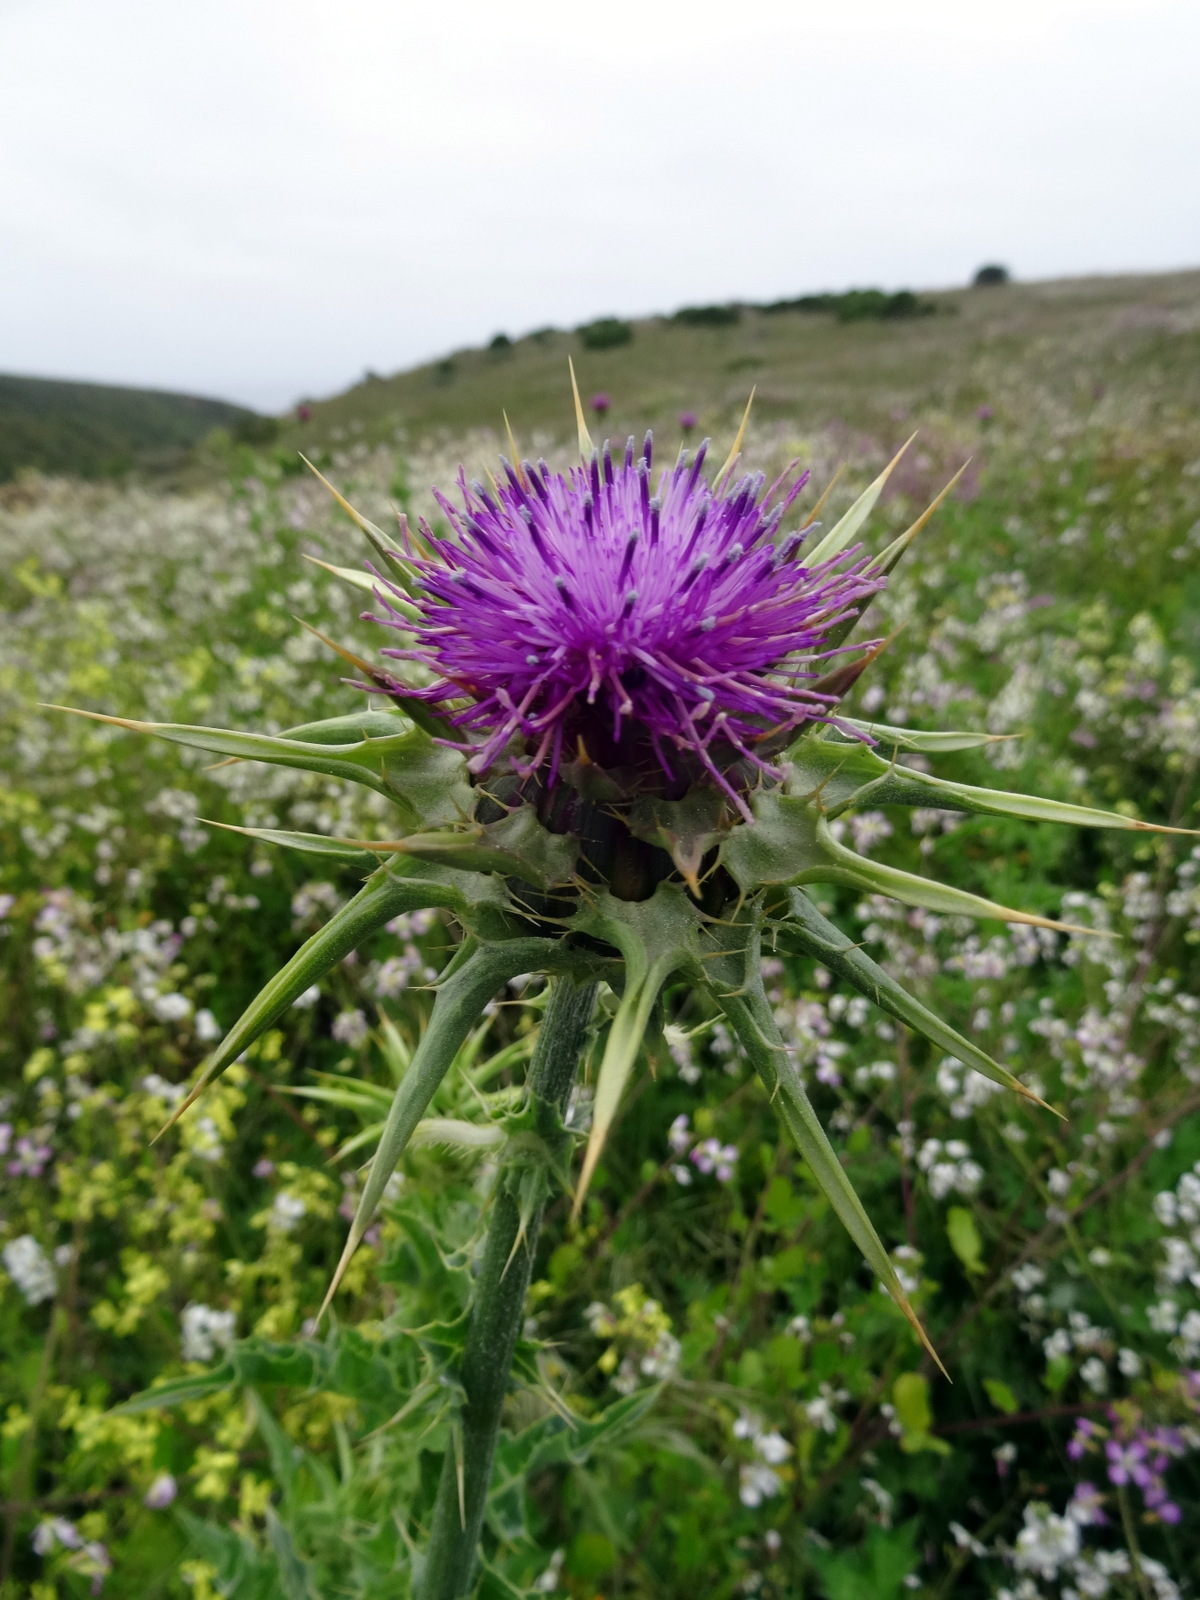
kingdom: Plantae
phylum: Tracheophyta
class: Magnoliopsida
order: Asterales
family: Asteraceae
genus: Silybum
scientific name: Silybum marianum
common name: Milk thistle
